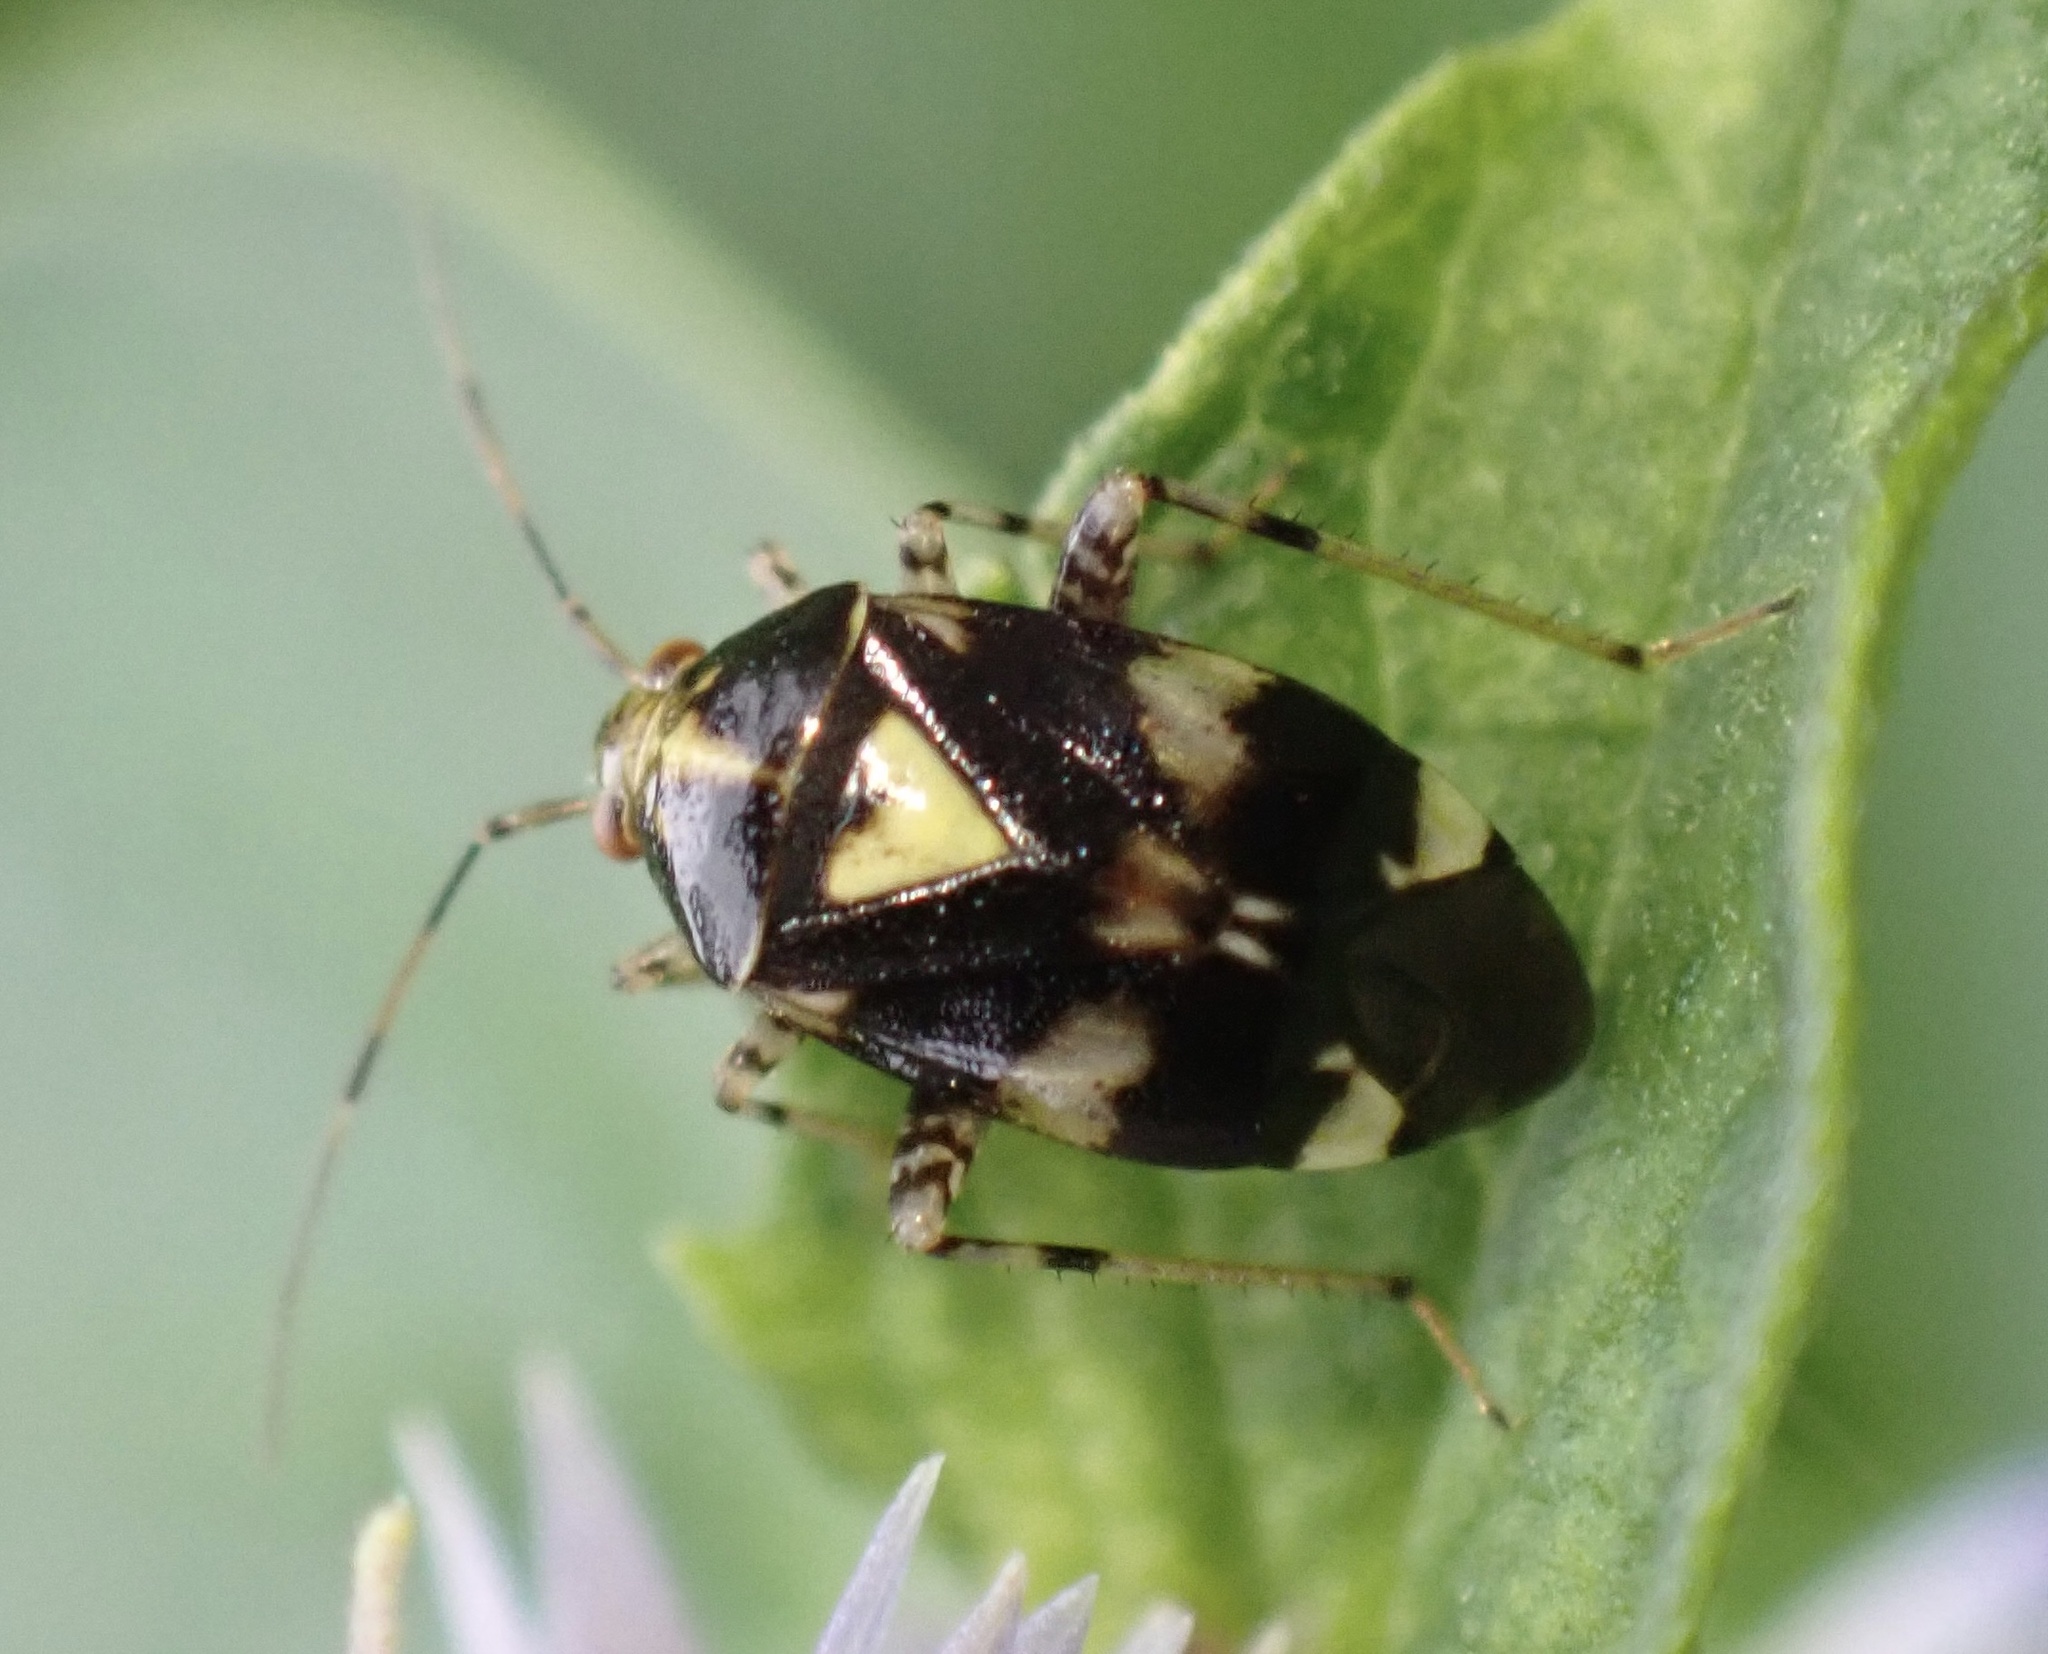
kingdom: Animalia
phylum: Arthropoda
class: Insecta
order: Hemiptera
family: Miridae
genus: Liocoris
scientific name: Liocoris tripustulatus
